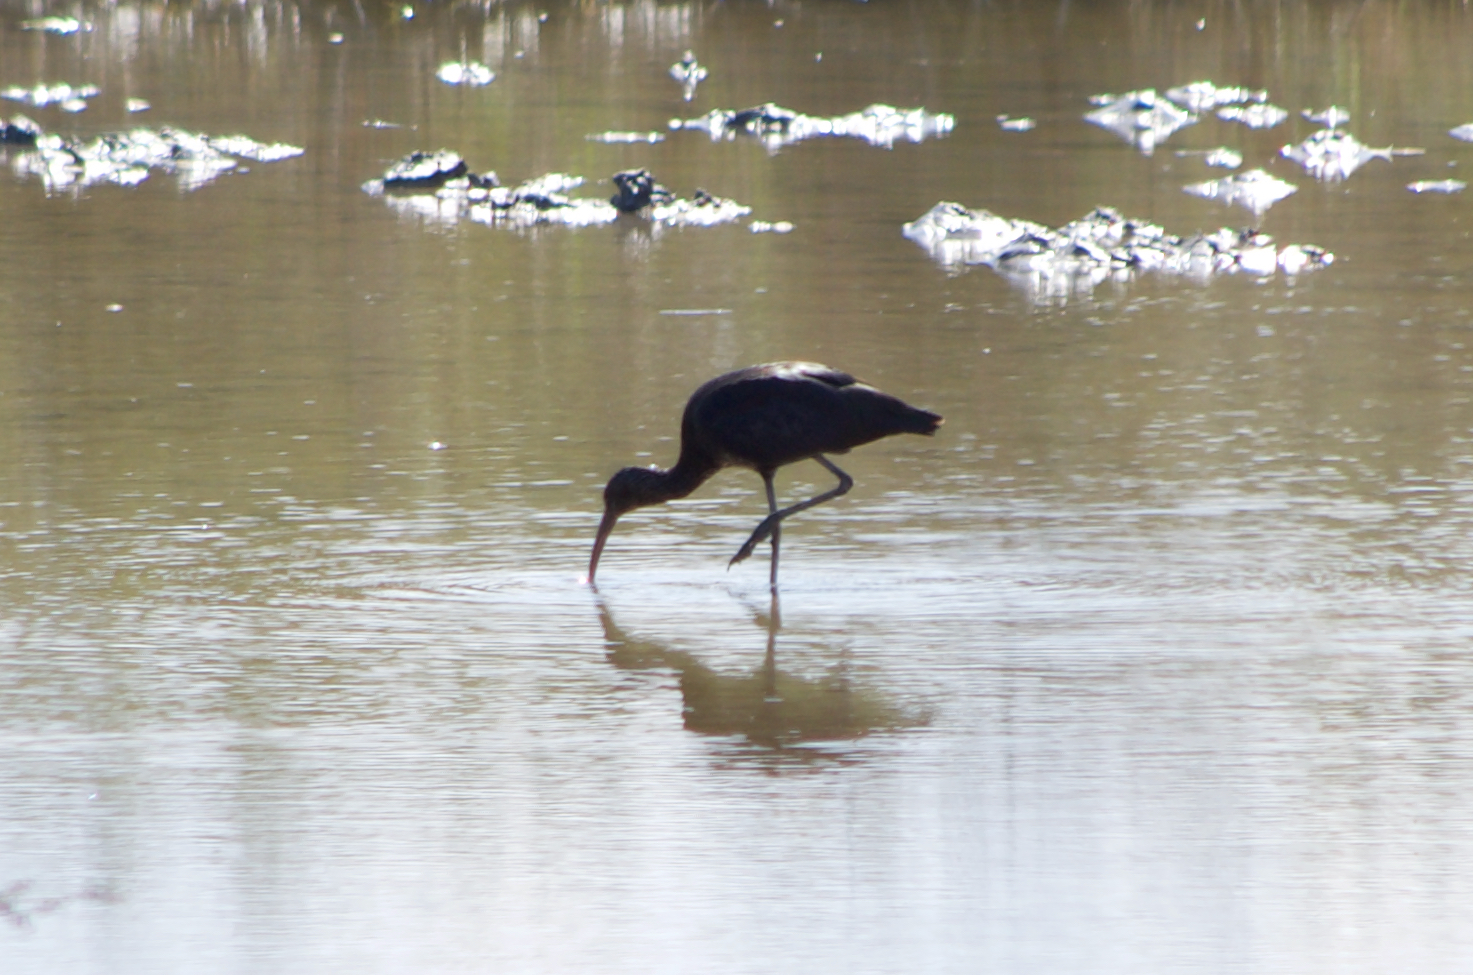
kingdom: Animalia
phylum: Chordata
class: Aves
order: Pelecaniformes
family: Threskiornithidae
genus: Plegadis
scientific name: Plegadis falcinellus
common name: Glossy ibis
